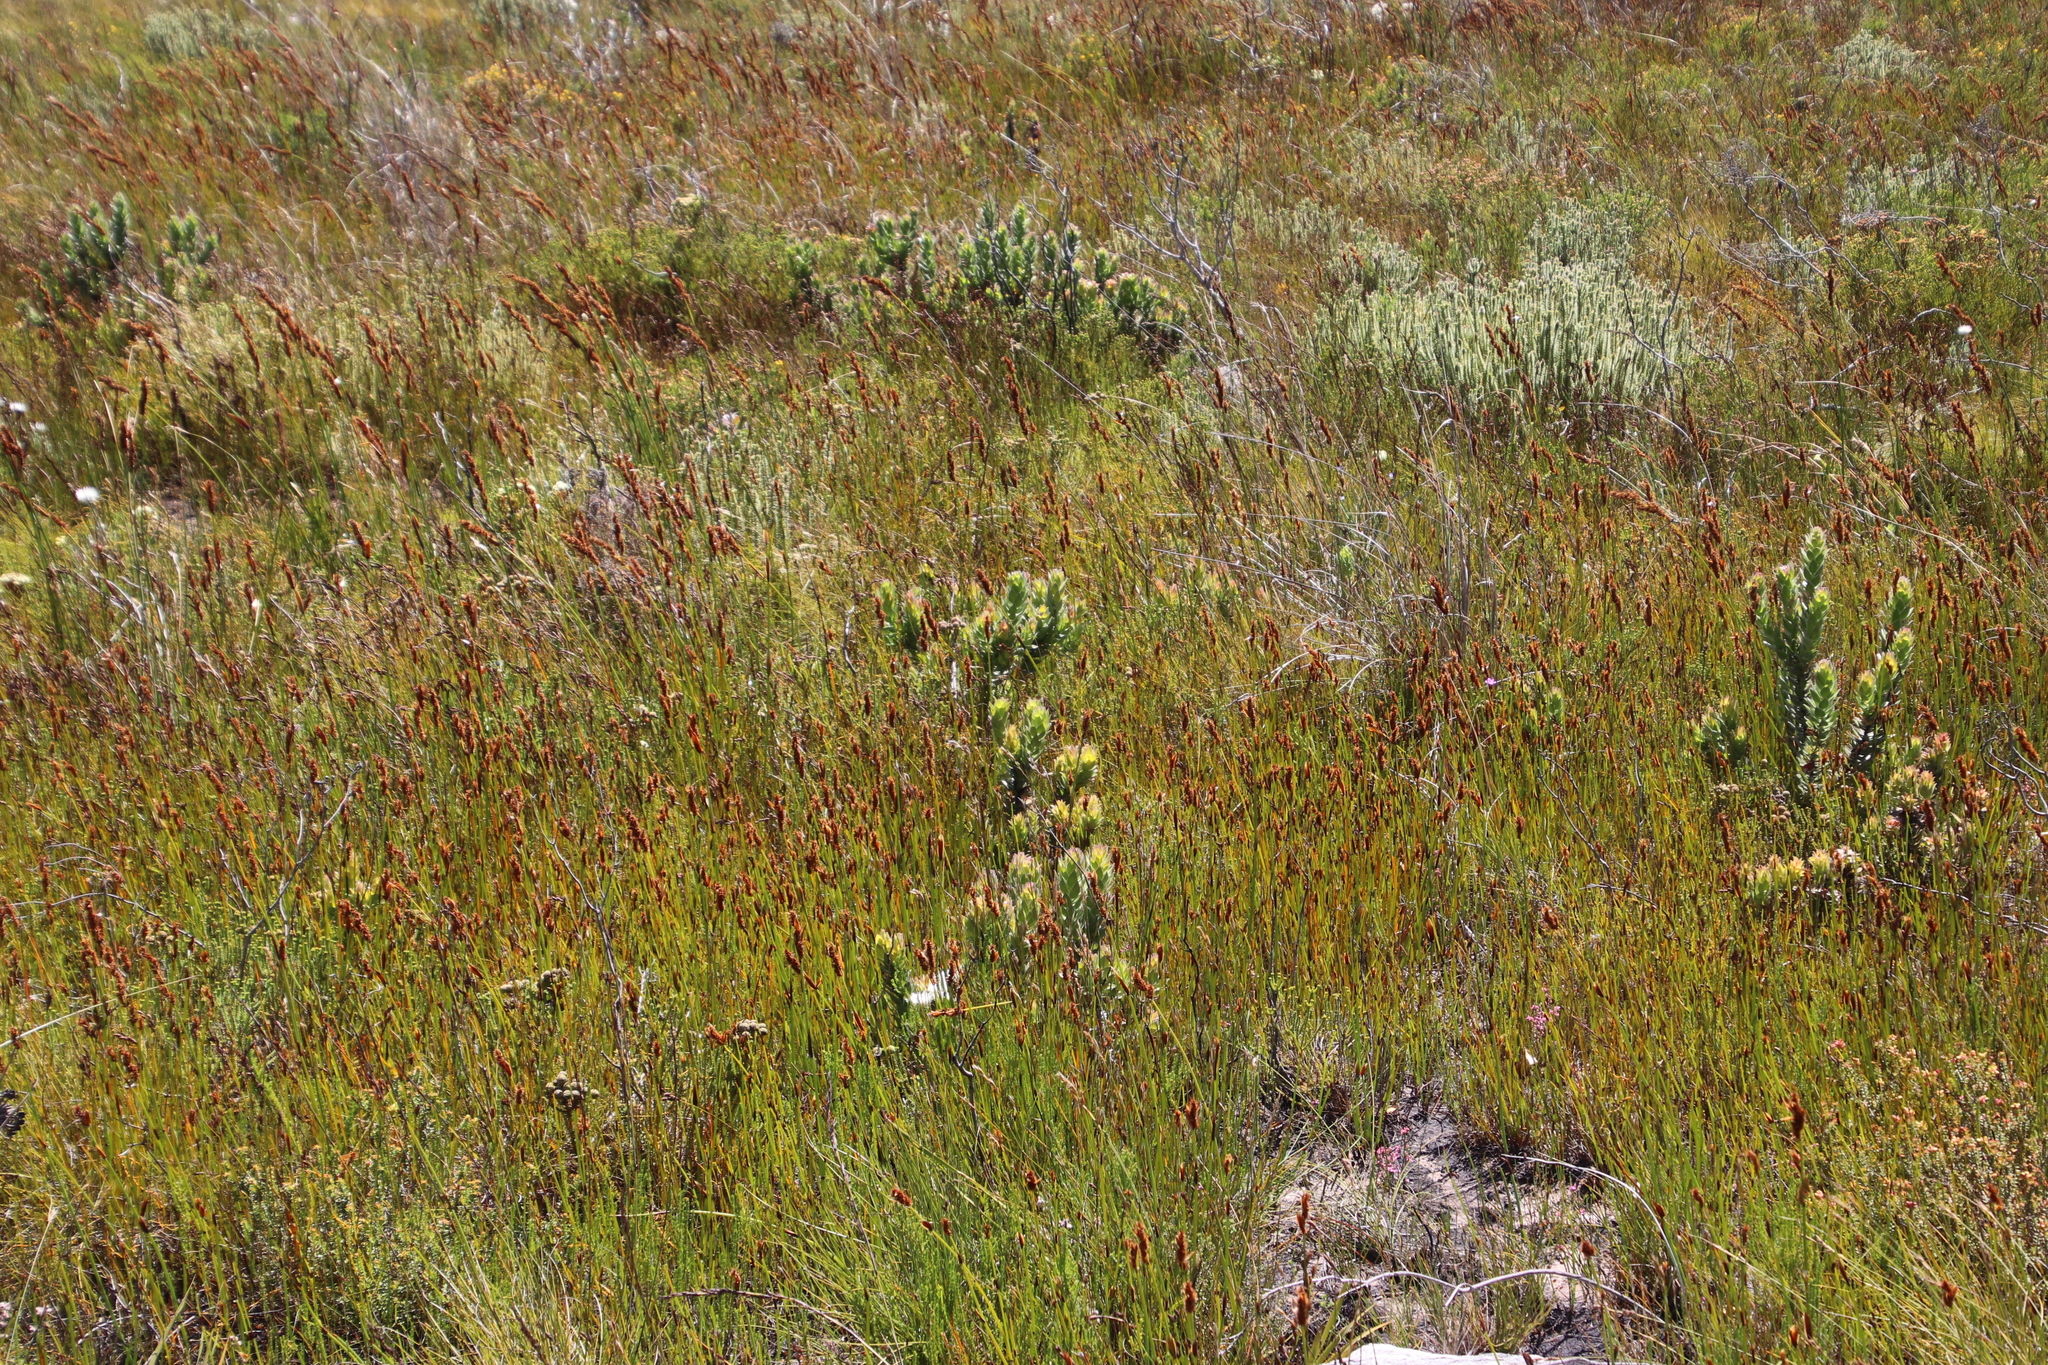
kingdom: Plantae
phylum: Tracheophyta
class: Magnoliopsida
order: Proteales
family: Proteaceae
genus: Mimetes
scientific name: Mimetes hirtus
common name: Marsh pagoda
